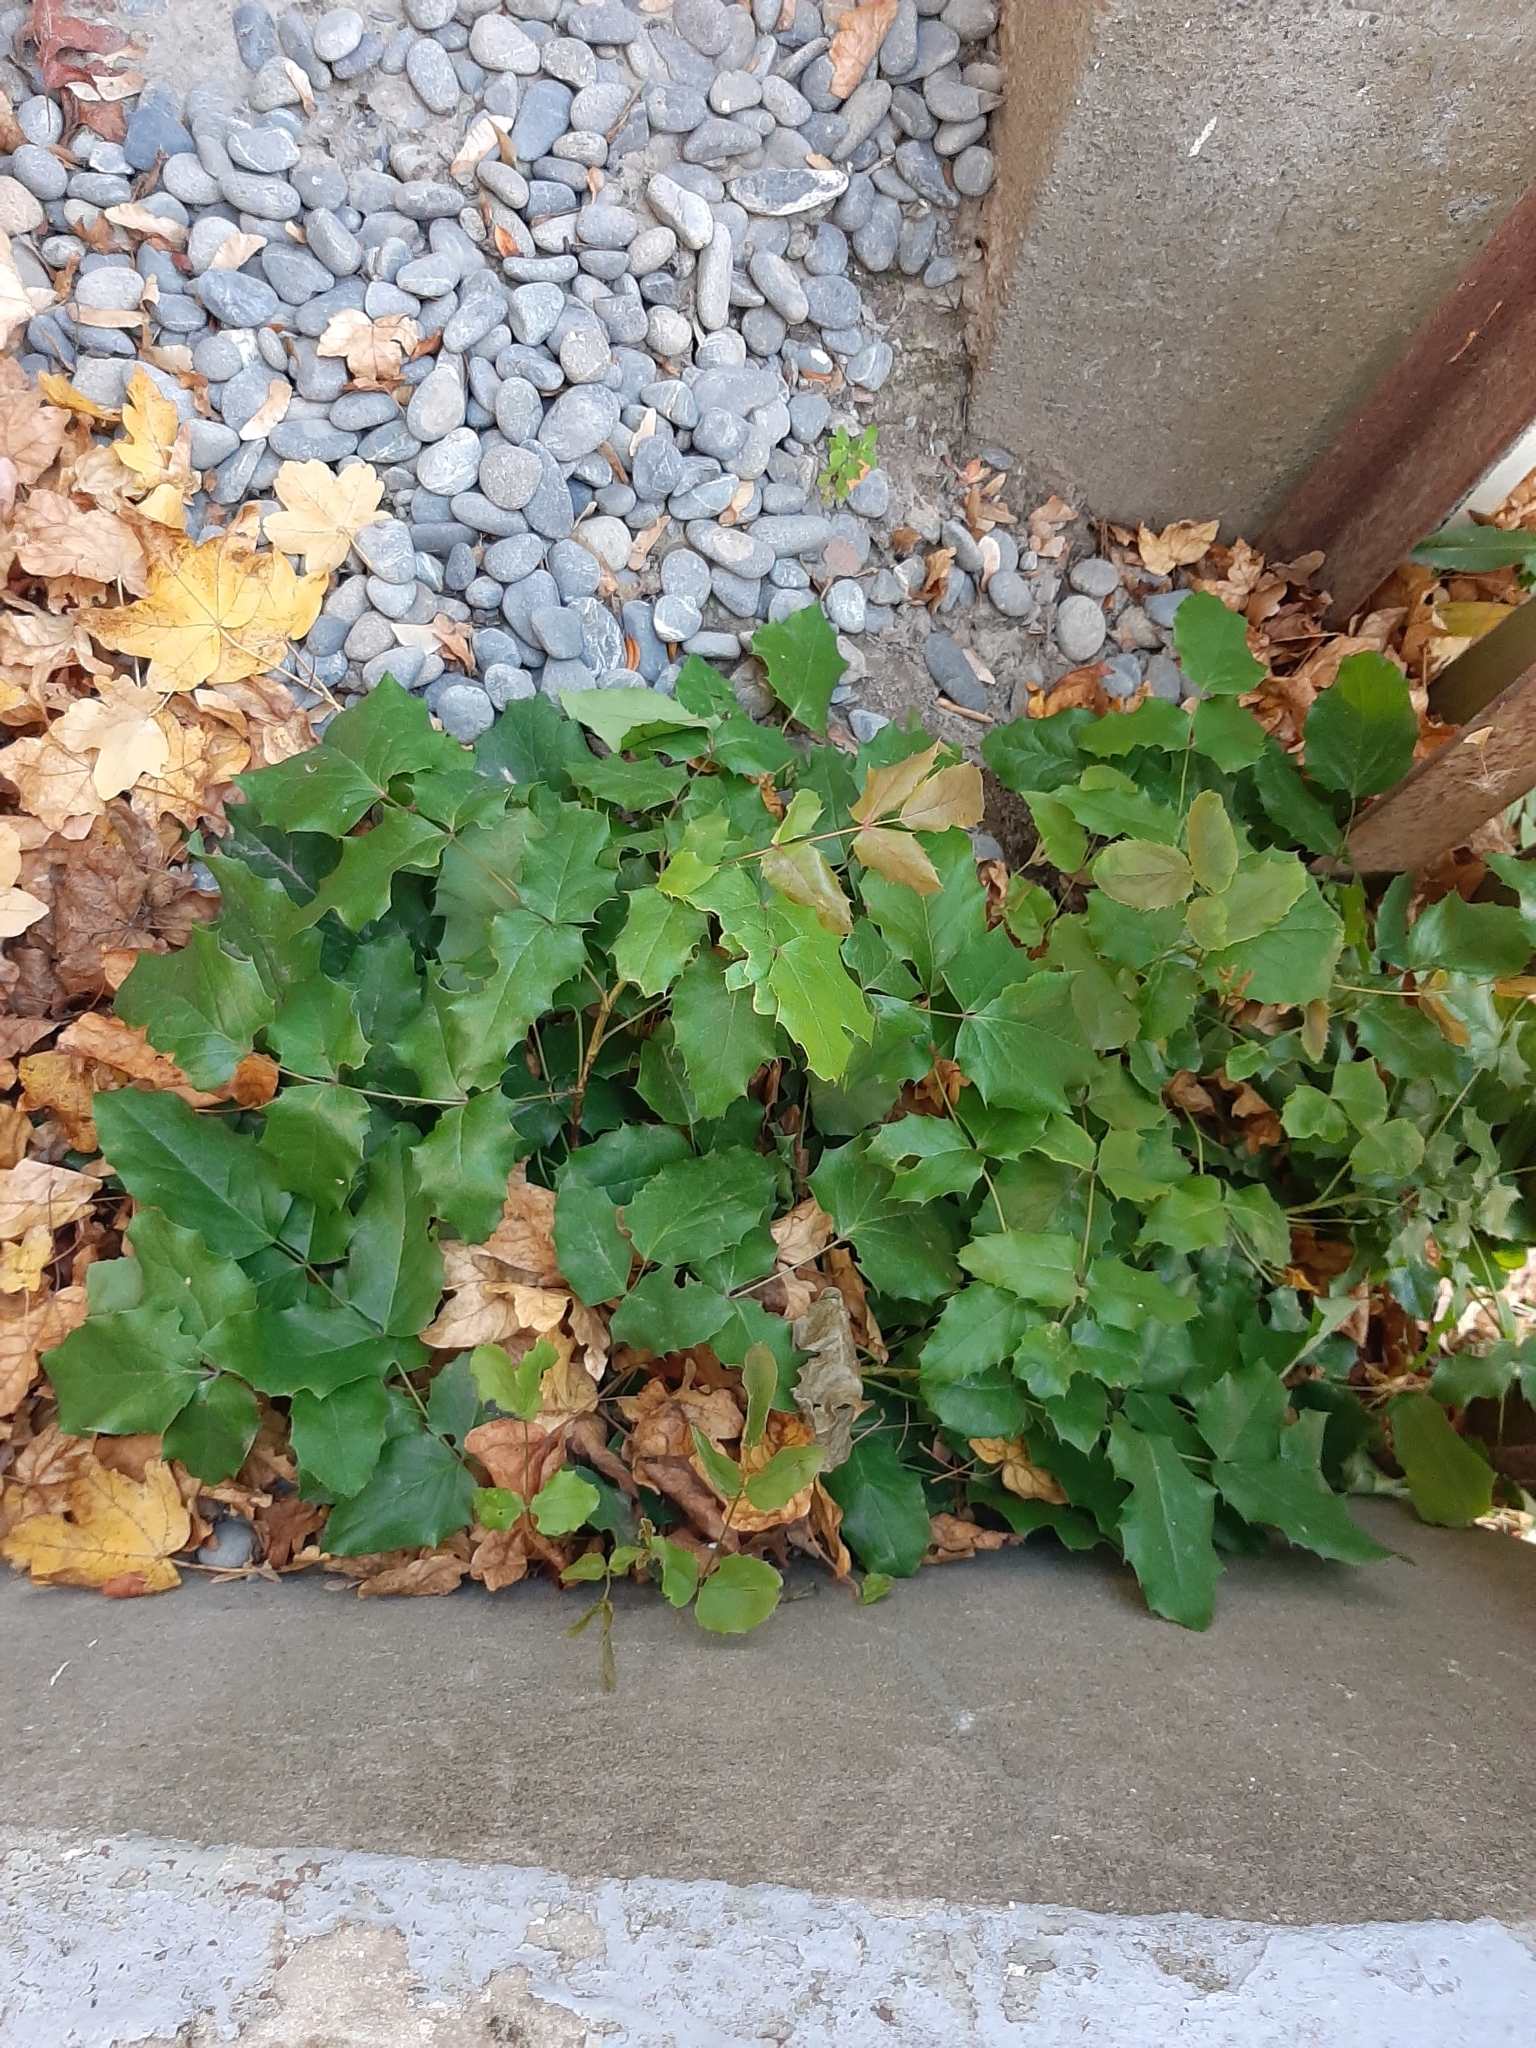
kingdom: Plantae
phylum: Tracheophyta
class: Magnoliopsida
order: Ranunculales
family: Berberidaceae
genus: Mahonia
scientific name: Mahonia aquifolium
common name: Oregon-grape
